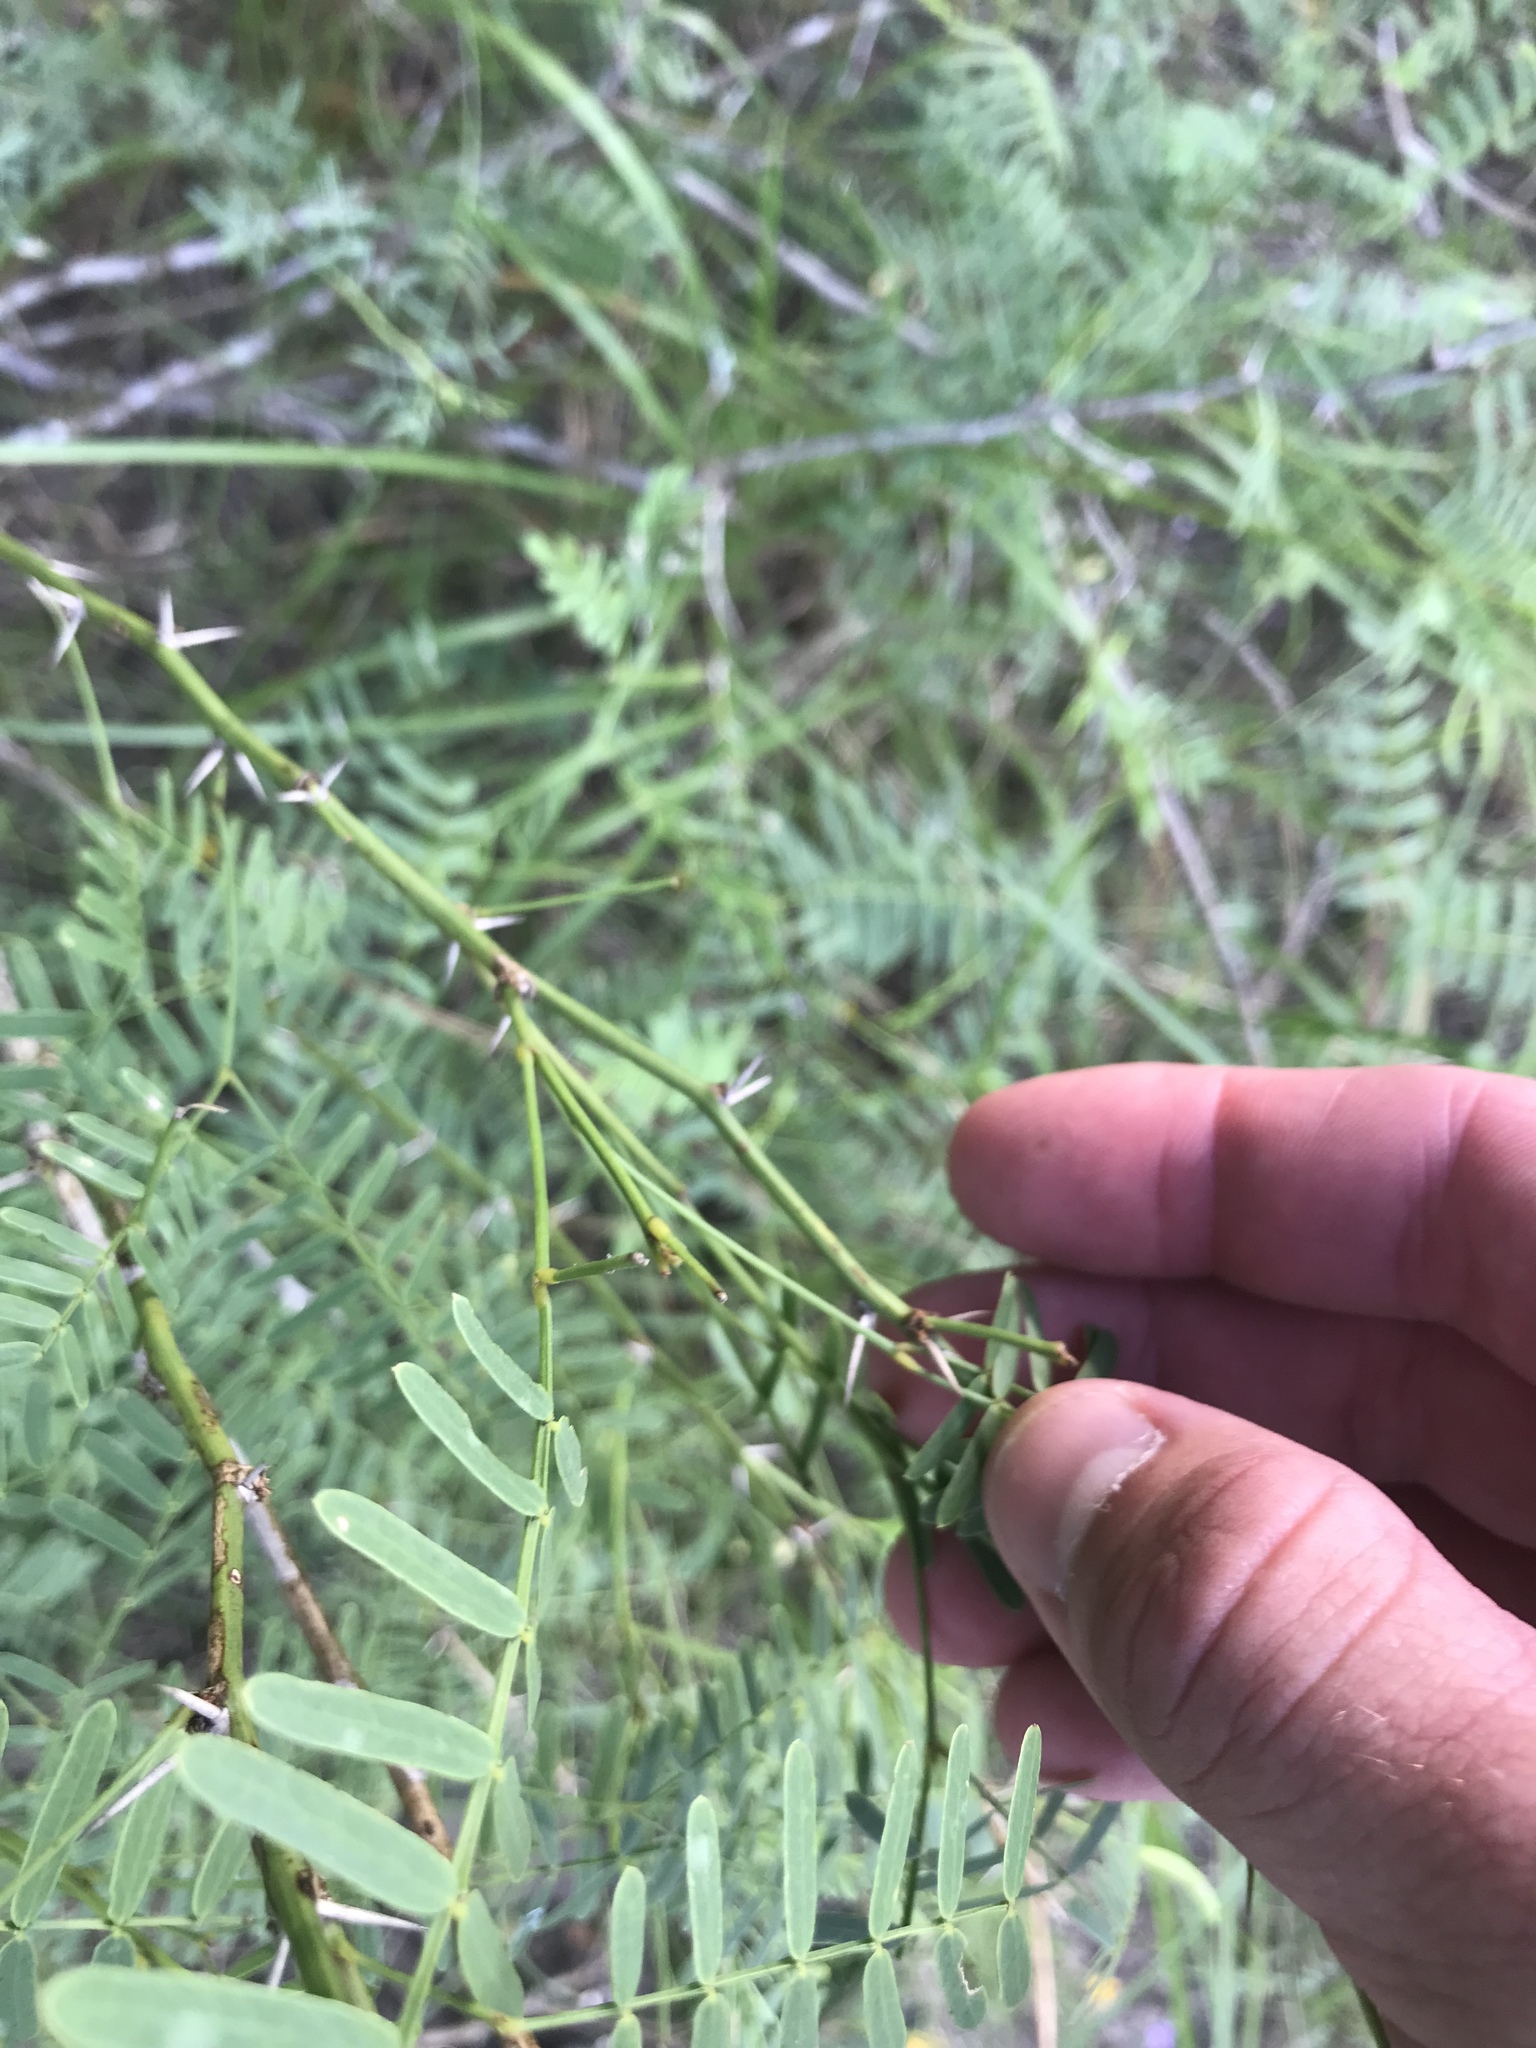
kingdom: Plantae
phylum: Tracheophyta
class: Magnoliopsida
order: Fabales
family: Fabaceae
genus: Prosopis
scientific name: Prosopis glandulosa
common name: Honey mesquite
